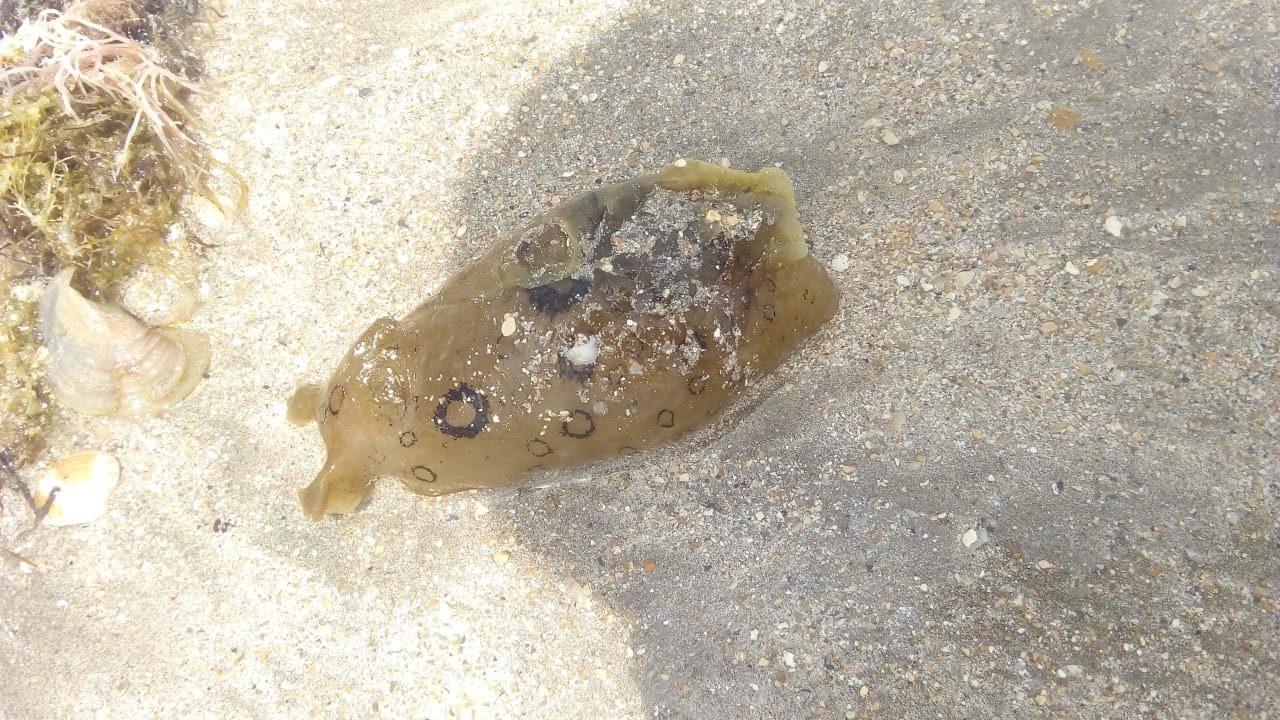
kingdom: Animalia
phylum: Mollusca
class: Gastropoda
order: Aplysiida
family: Aplysiidae
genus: Aplysia
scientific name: Aplysia dactylomela
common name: Large-spotted sea hare
